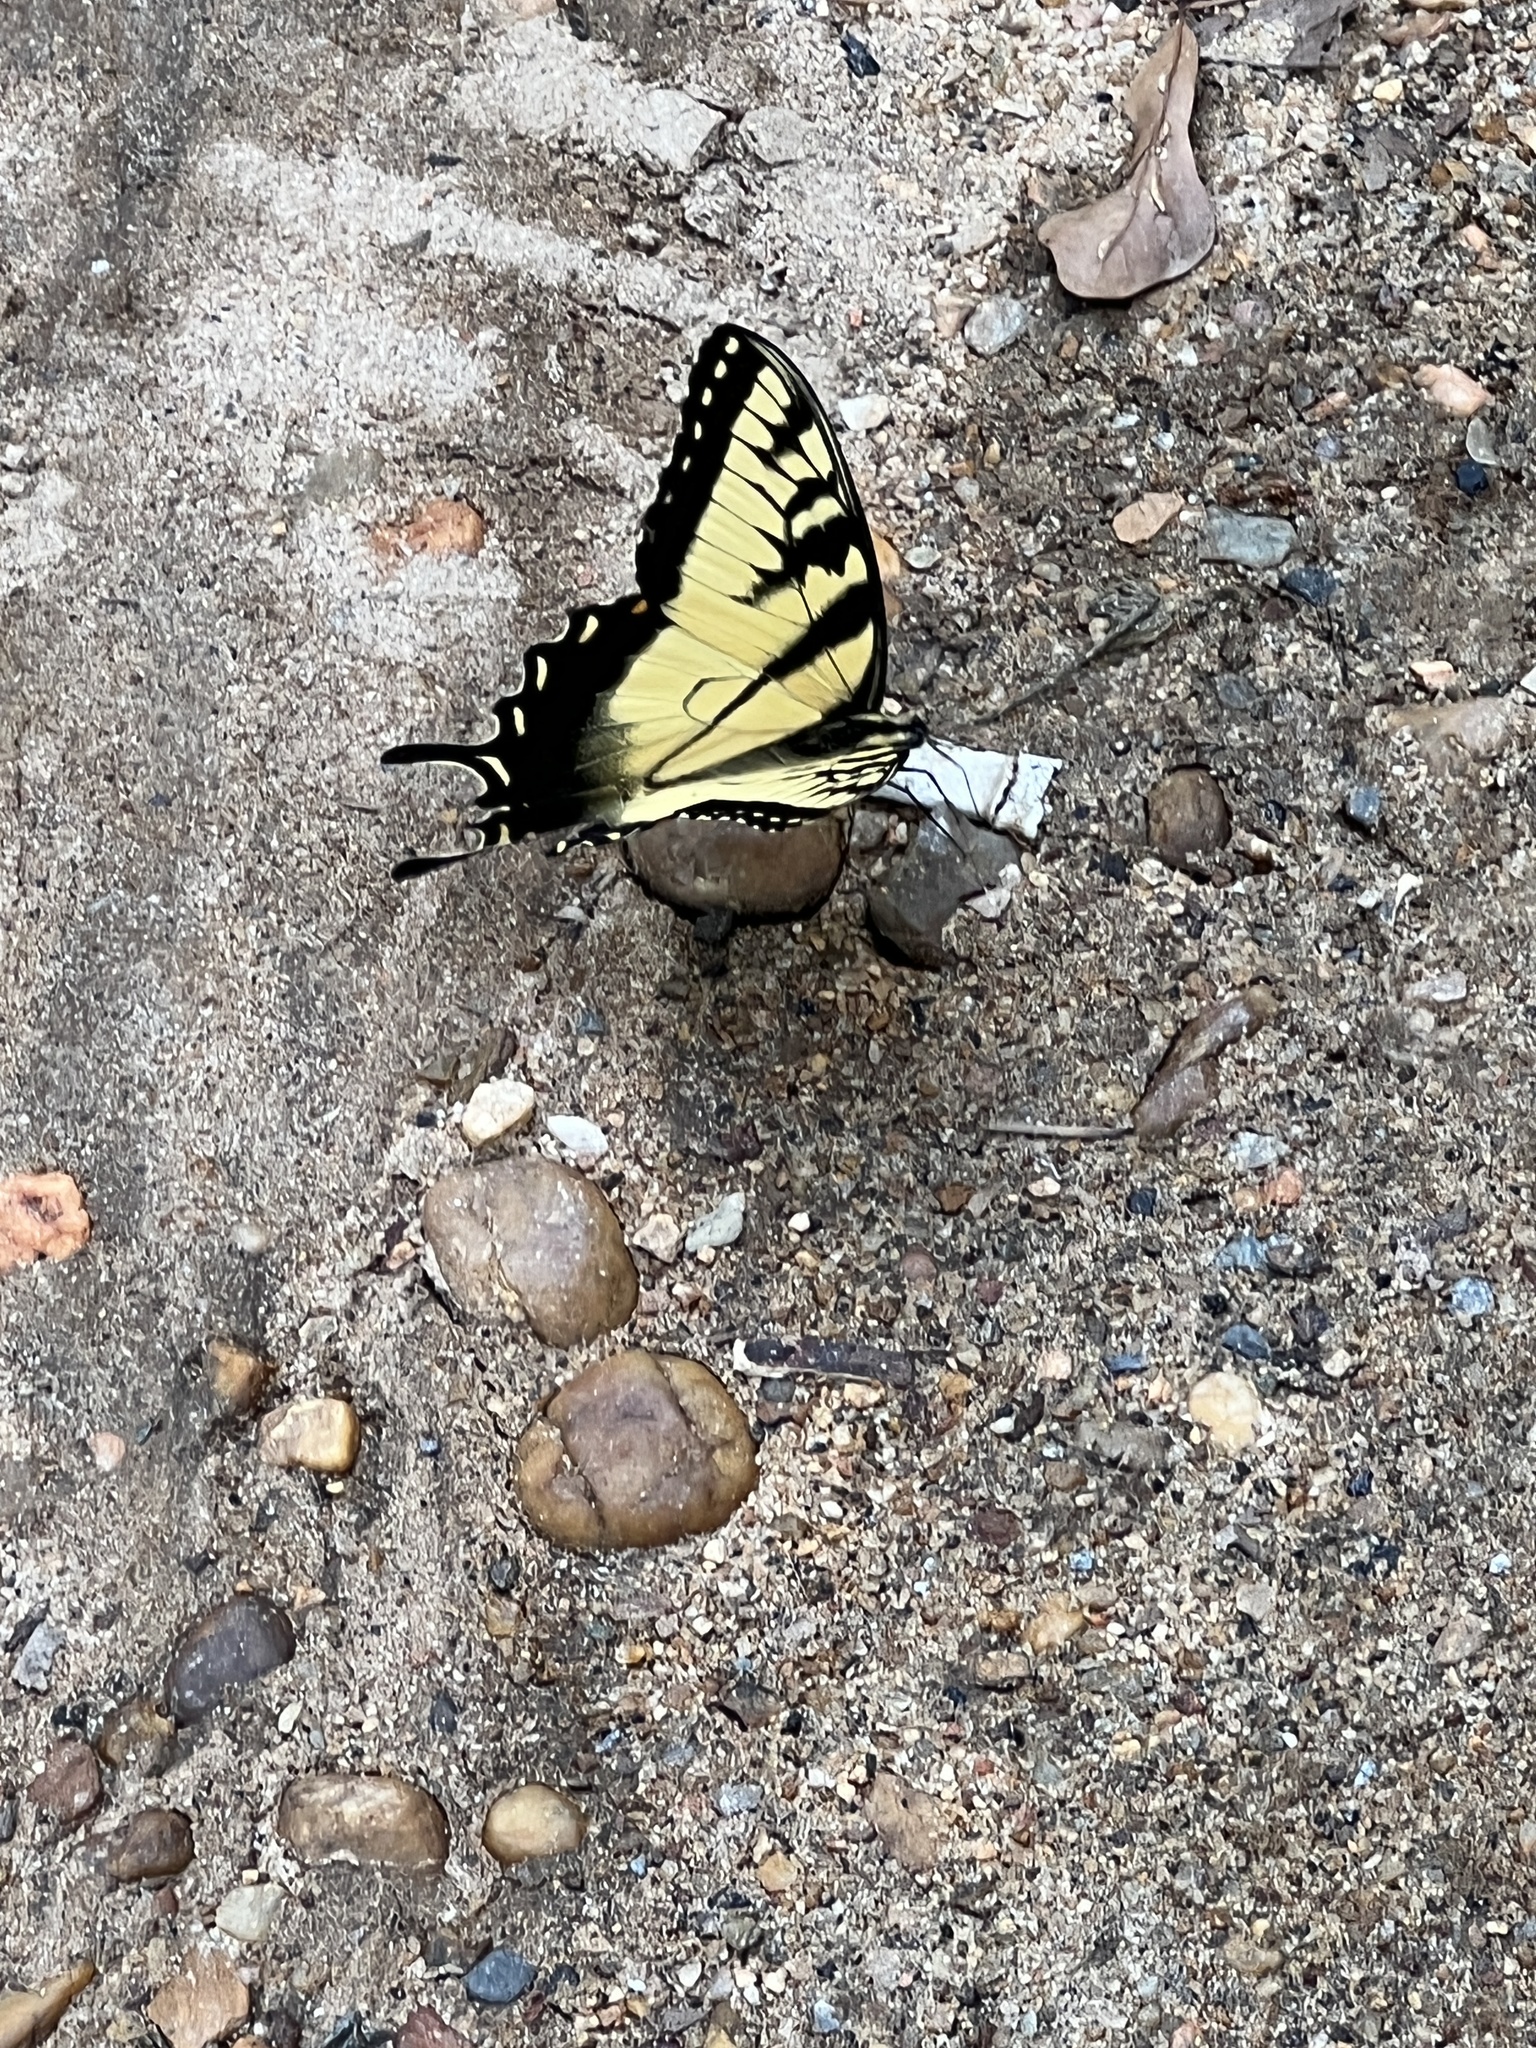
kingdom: Animalia
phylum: Arthropoda
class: Insecta
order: Lepidoptera
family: Papilionidae
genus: Papilio
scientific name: Papilio glaucus
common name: Tiger swallowtail
